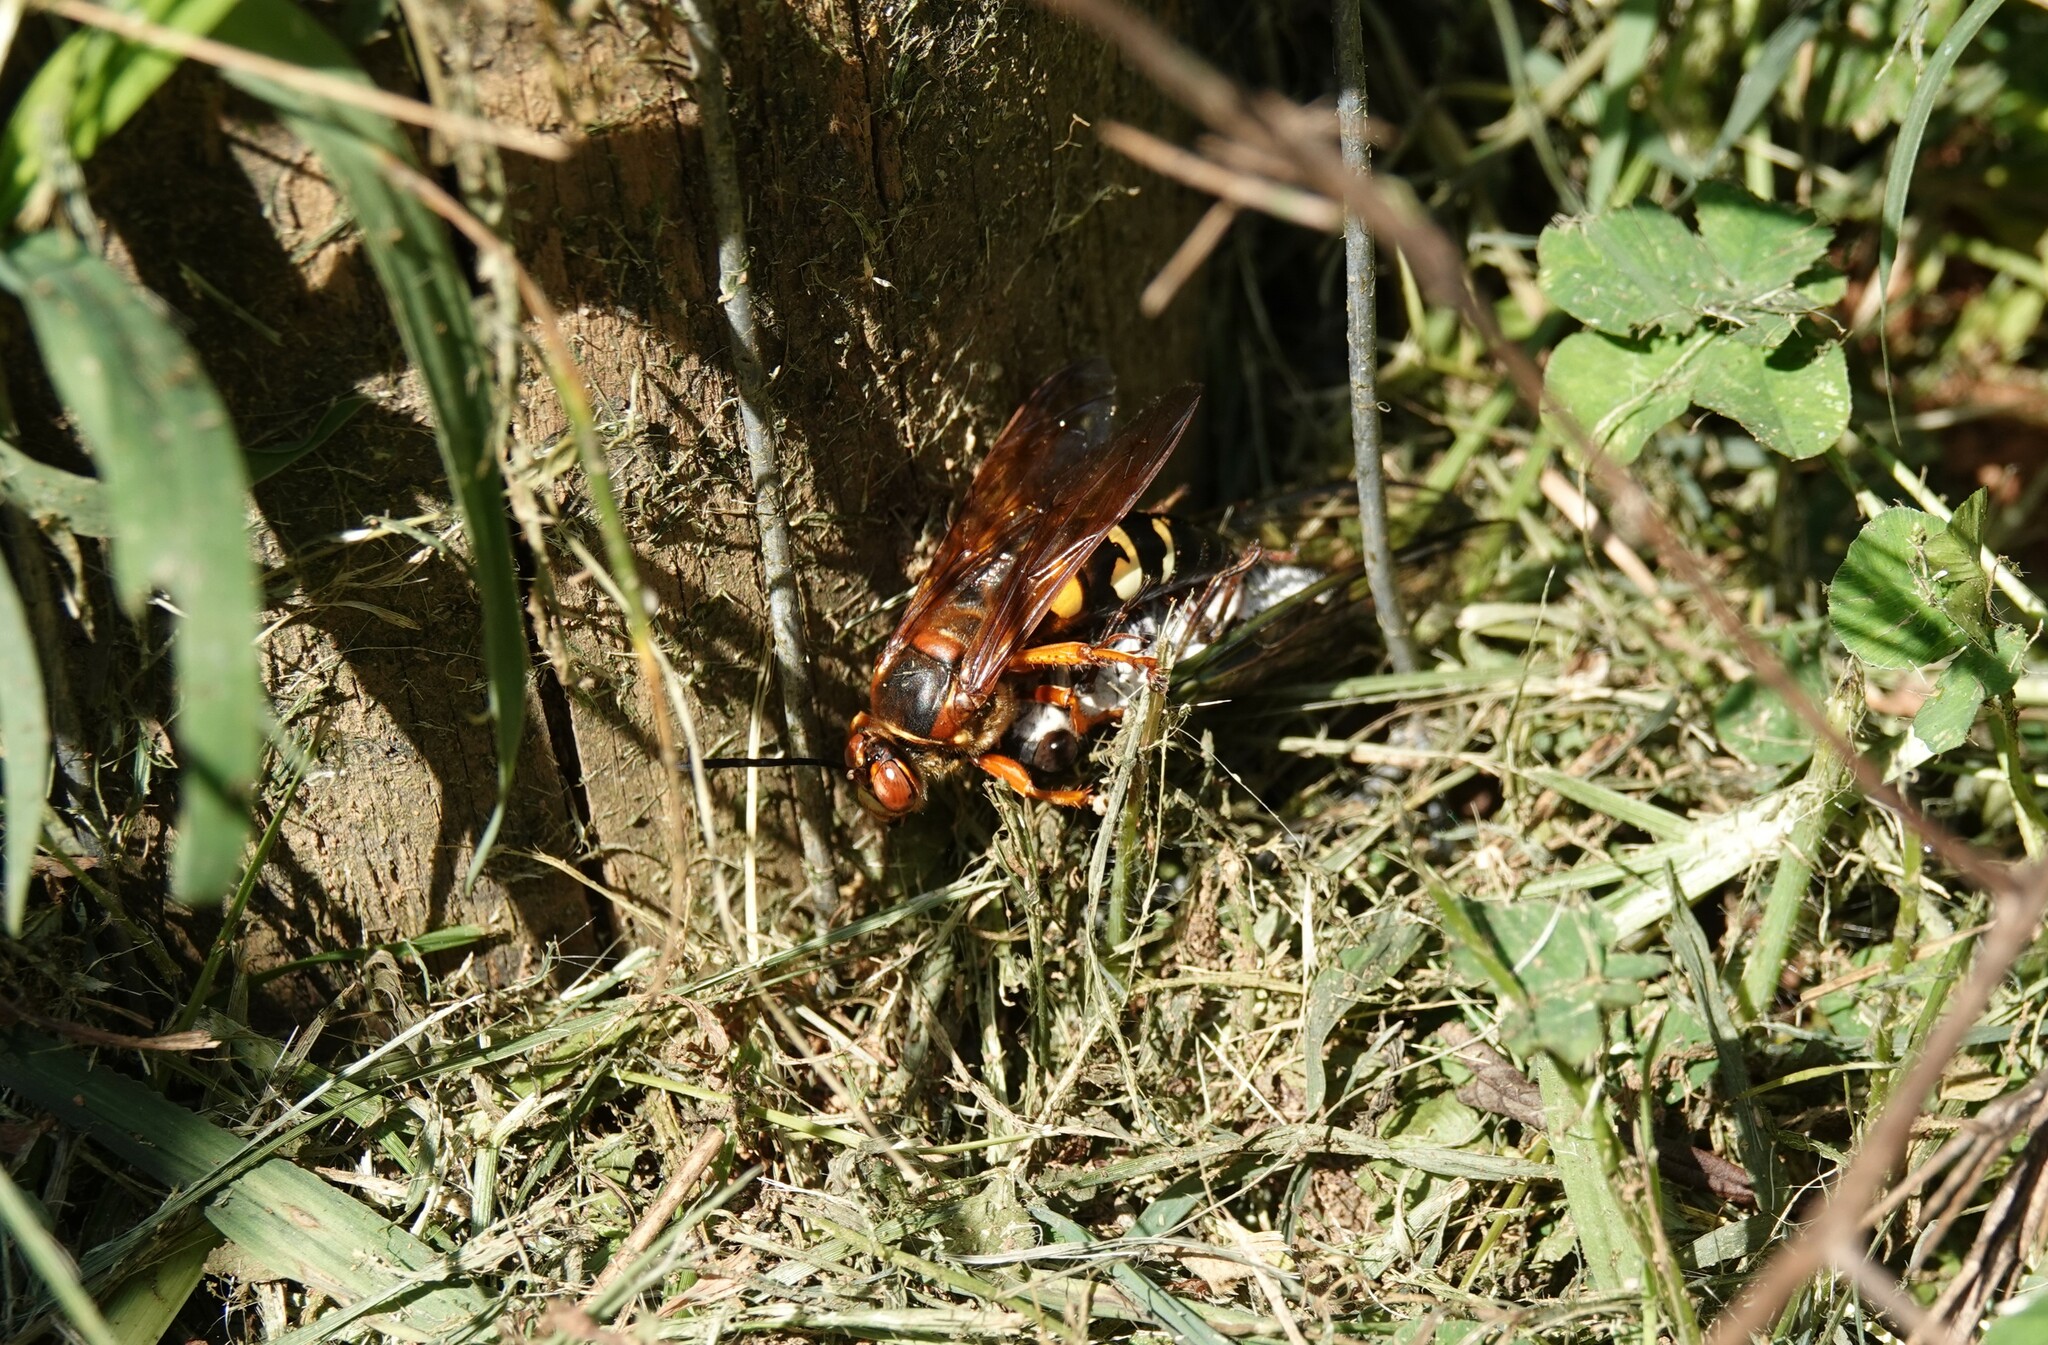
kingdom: Animalia
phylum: Arthropoda
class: Insecta
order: Hymenoptera
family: Crabronidae
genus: Sphecius
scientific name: Sphecius speciosus
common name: Cicada killer
